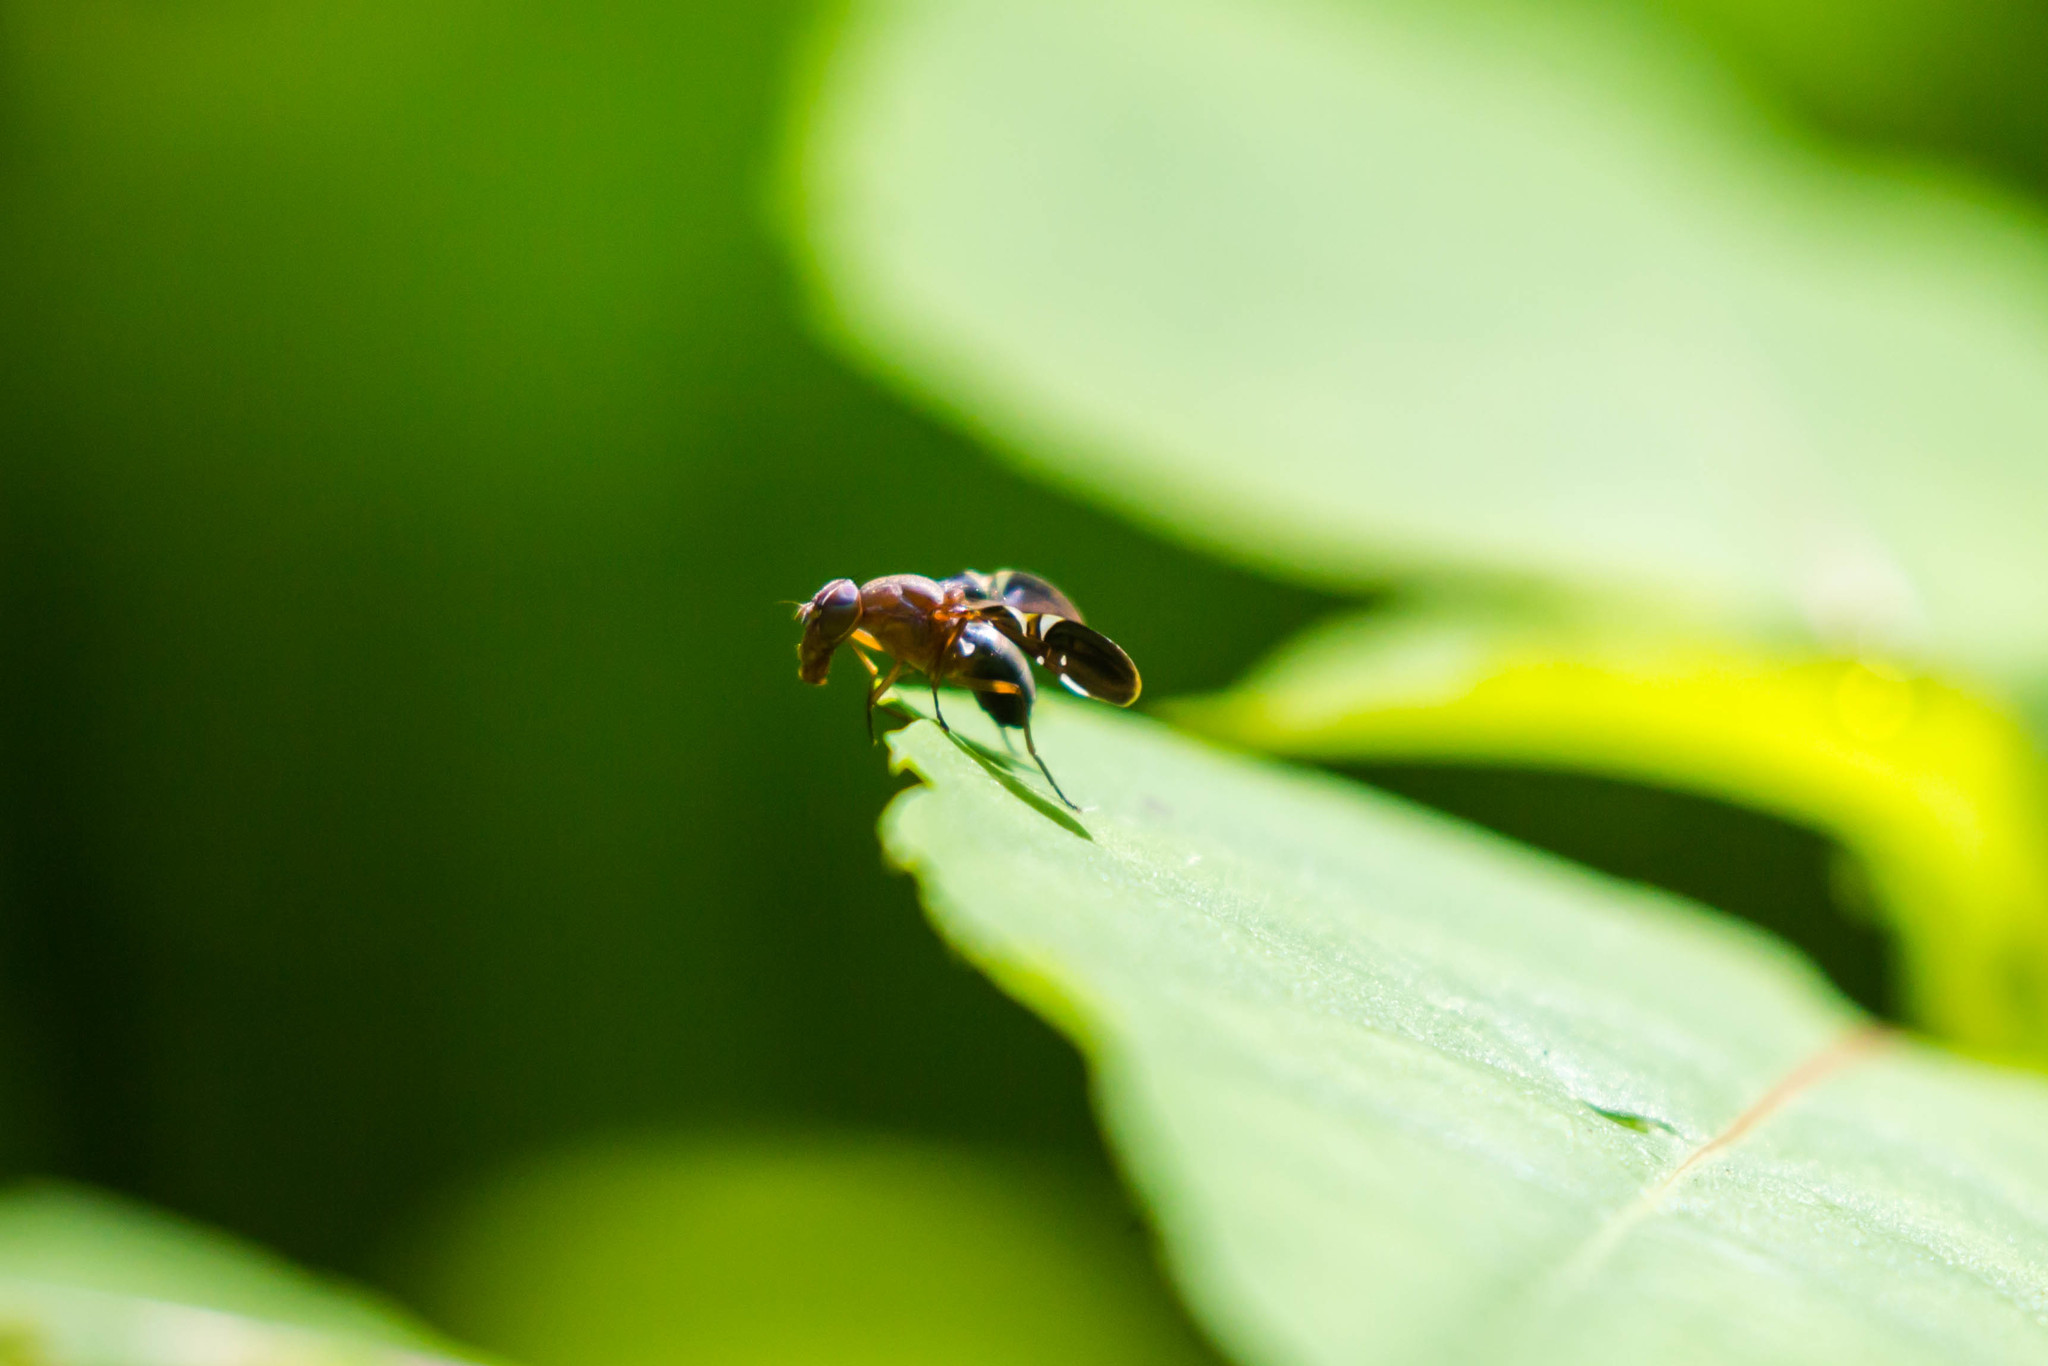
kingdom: Animalia
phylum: Arthropoda
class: Insecta
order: Diptera
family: Ulidiidae
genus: Delphinia
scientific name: Delphinia picta
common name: Common picture-winged fly
